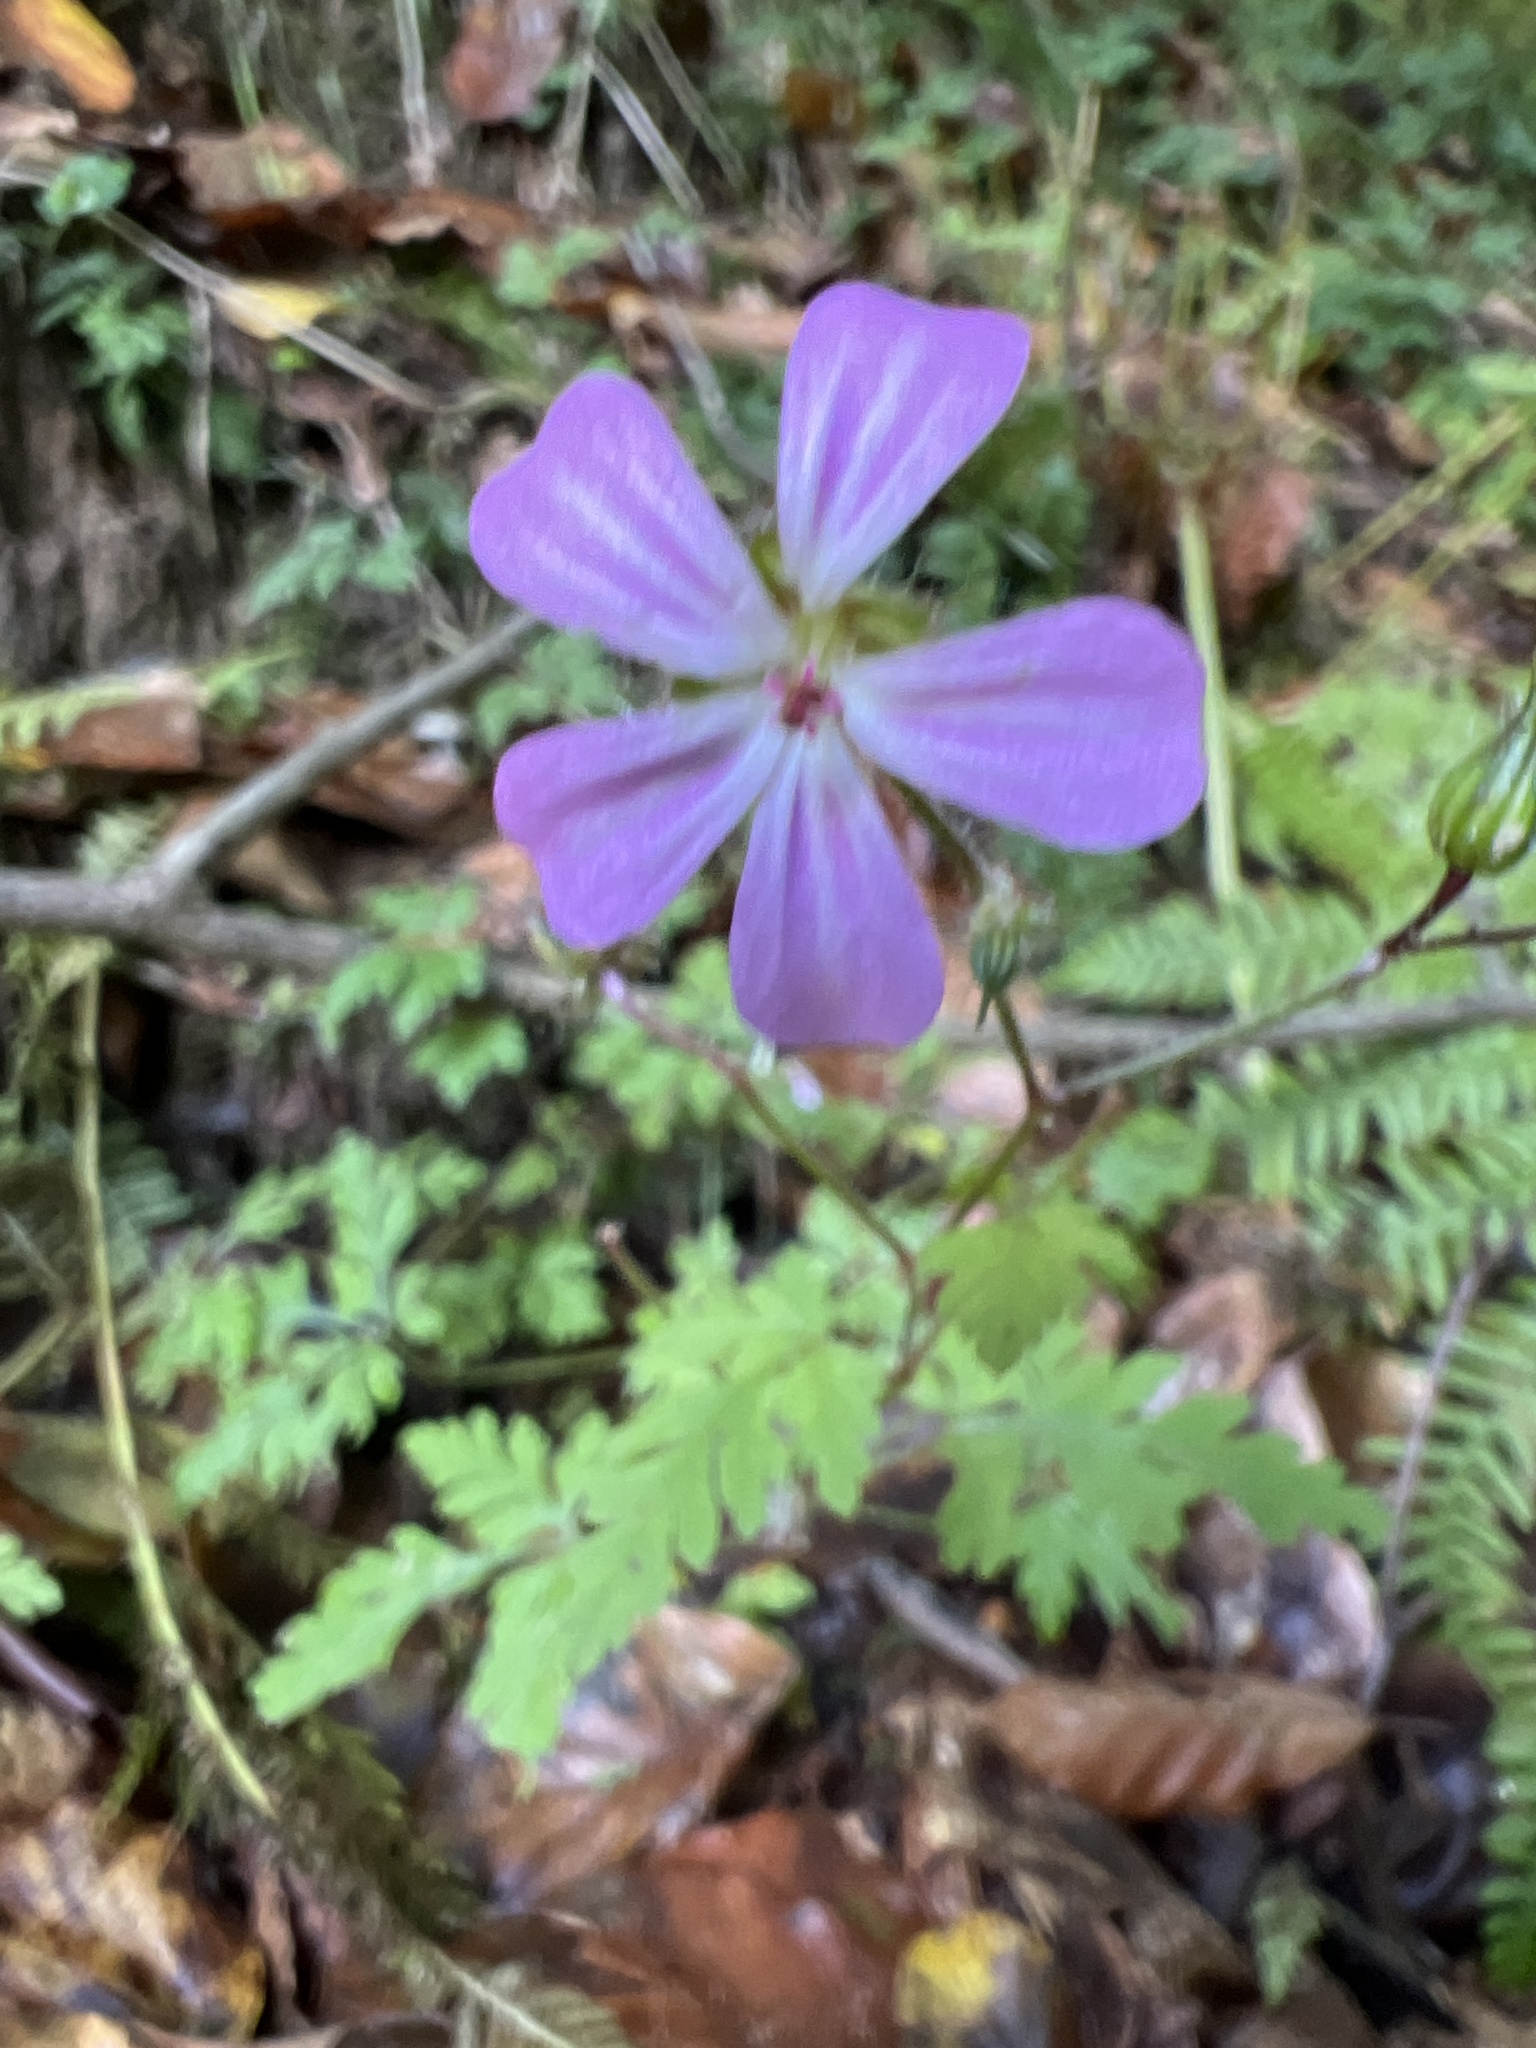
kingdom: Plantae
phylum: Tracheophyta
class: Magnoliopsida
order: Geraniales
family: Geraniaceae
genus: Geranium
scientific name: Geranium robertianum
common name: Herb-robert
